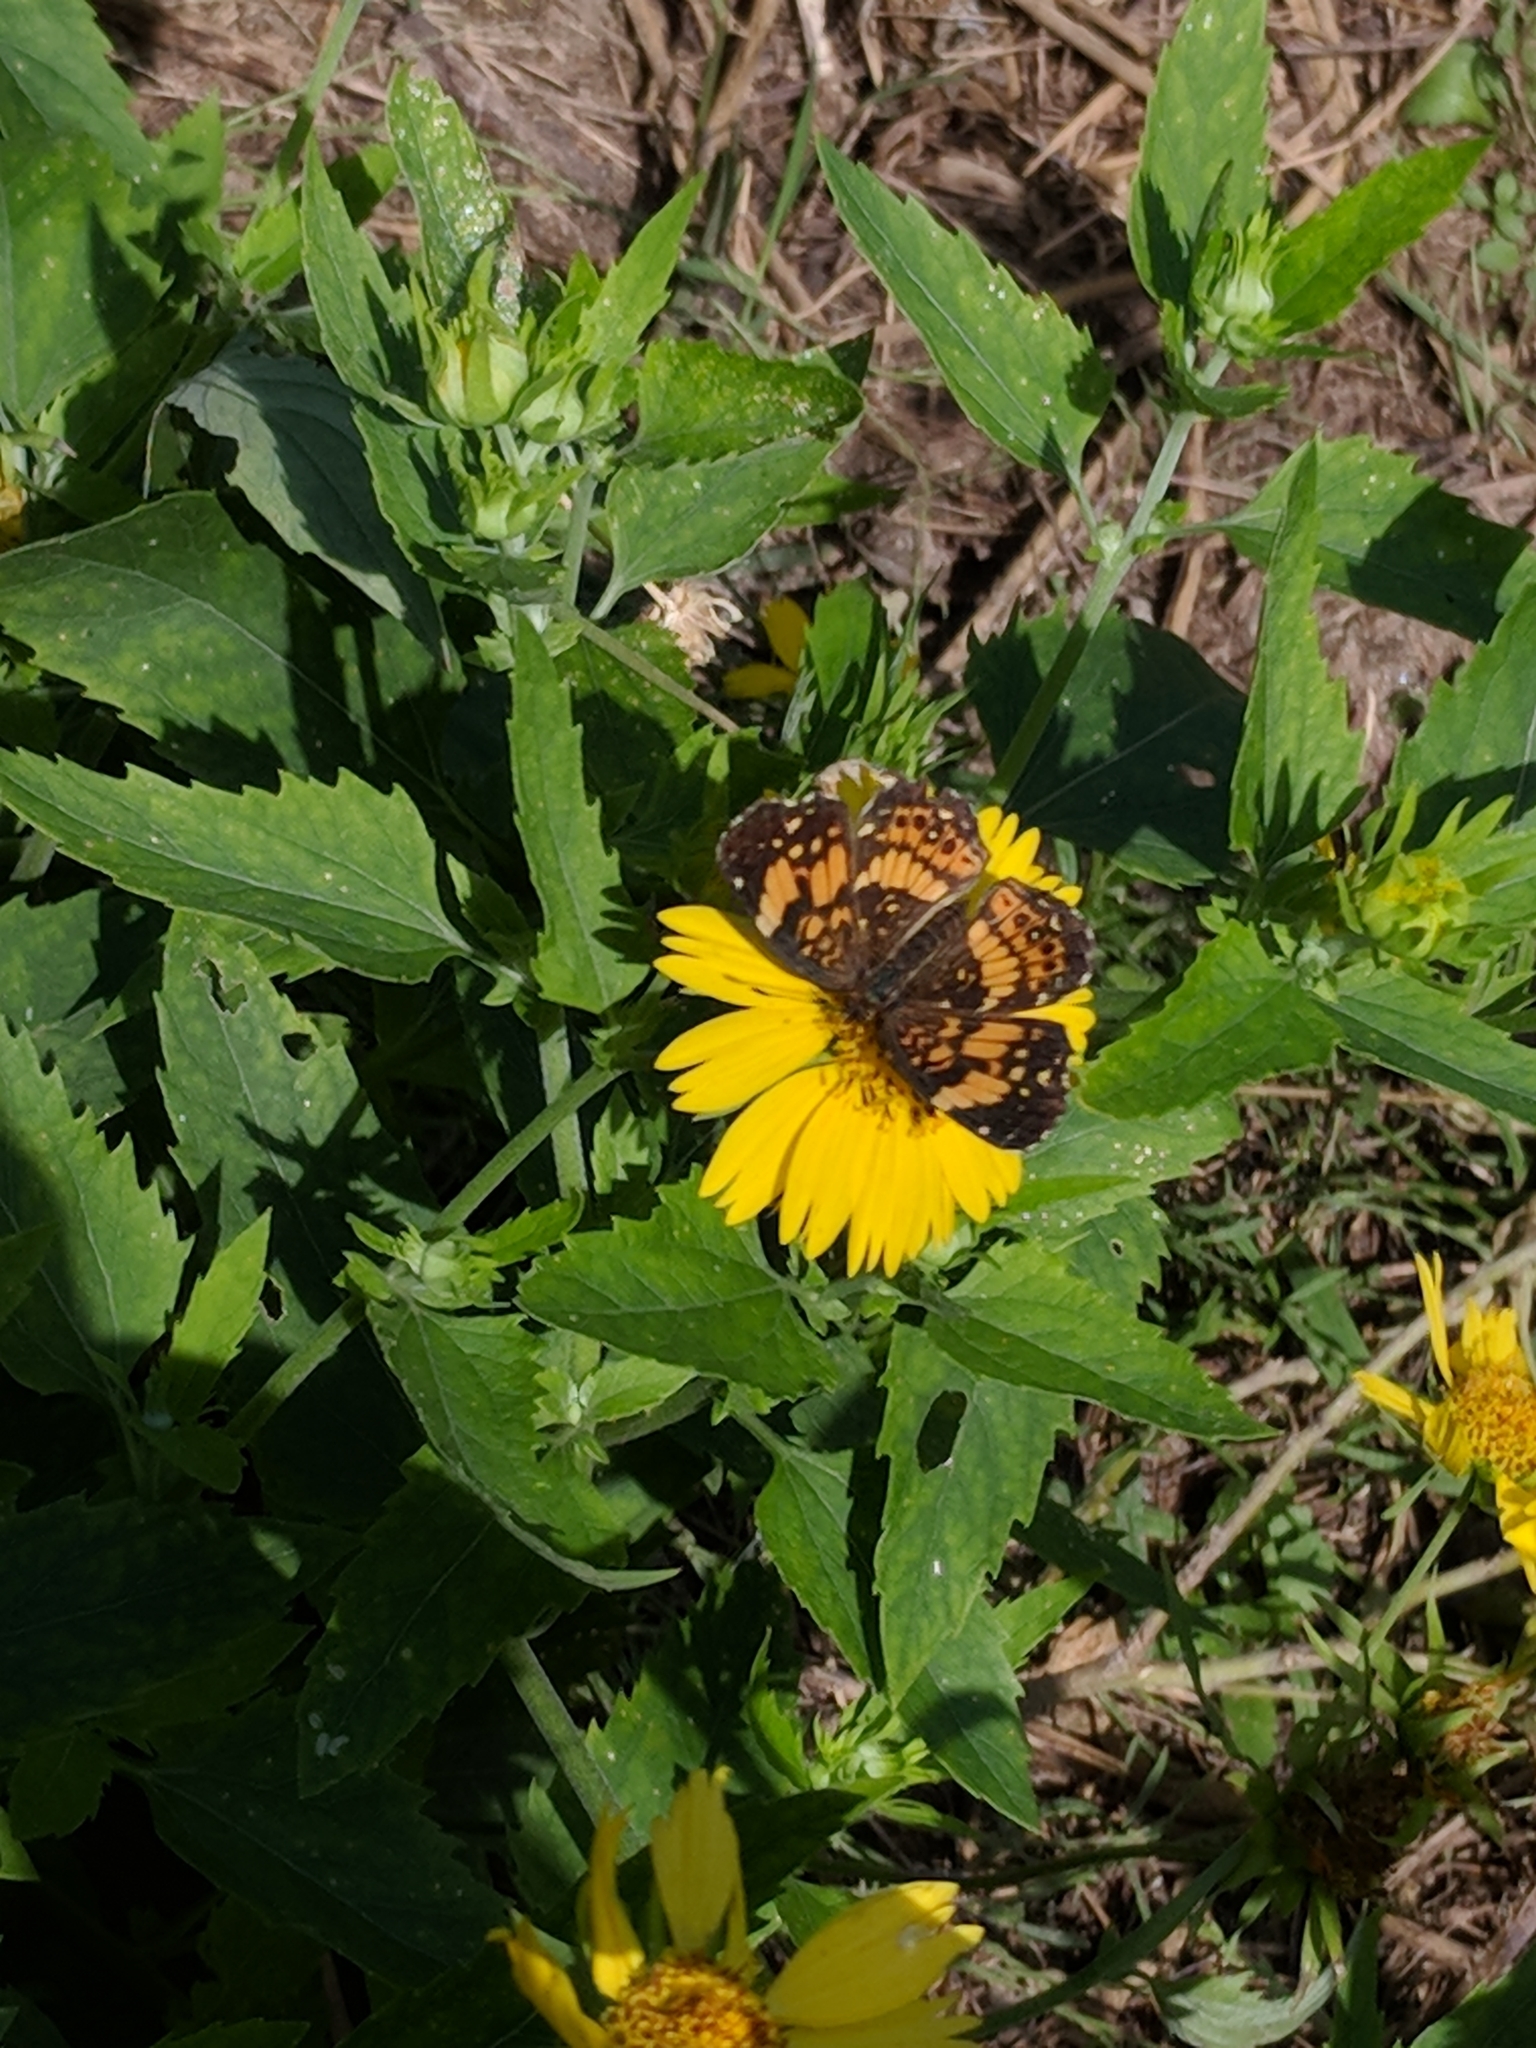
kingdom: Animalia
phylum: Arthropoda
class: Insecta
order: Lepidoptera
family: Nymphalidae
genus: Chlosyne
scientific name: Chlosyne nycteis
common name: Silvery checkerspot
